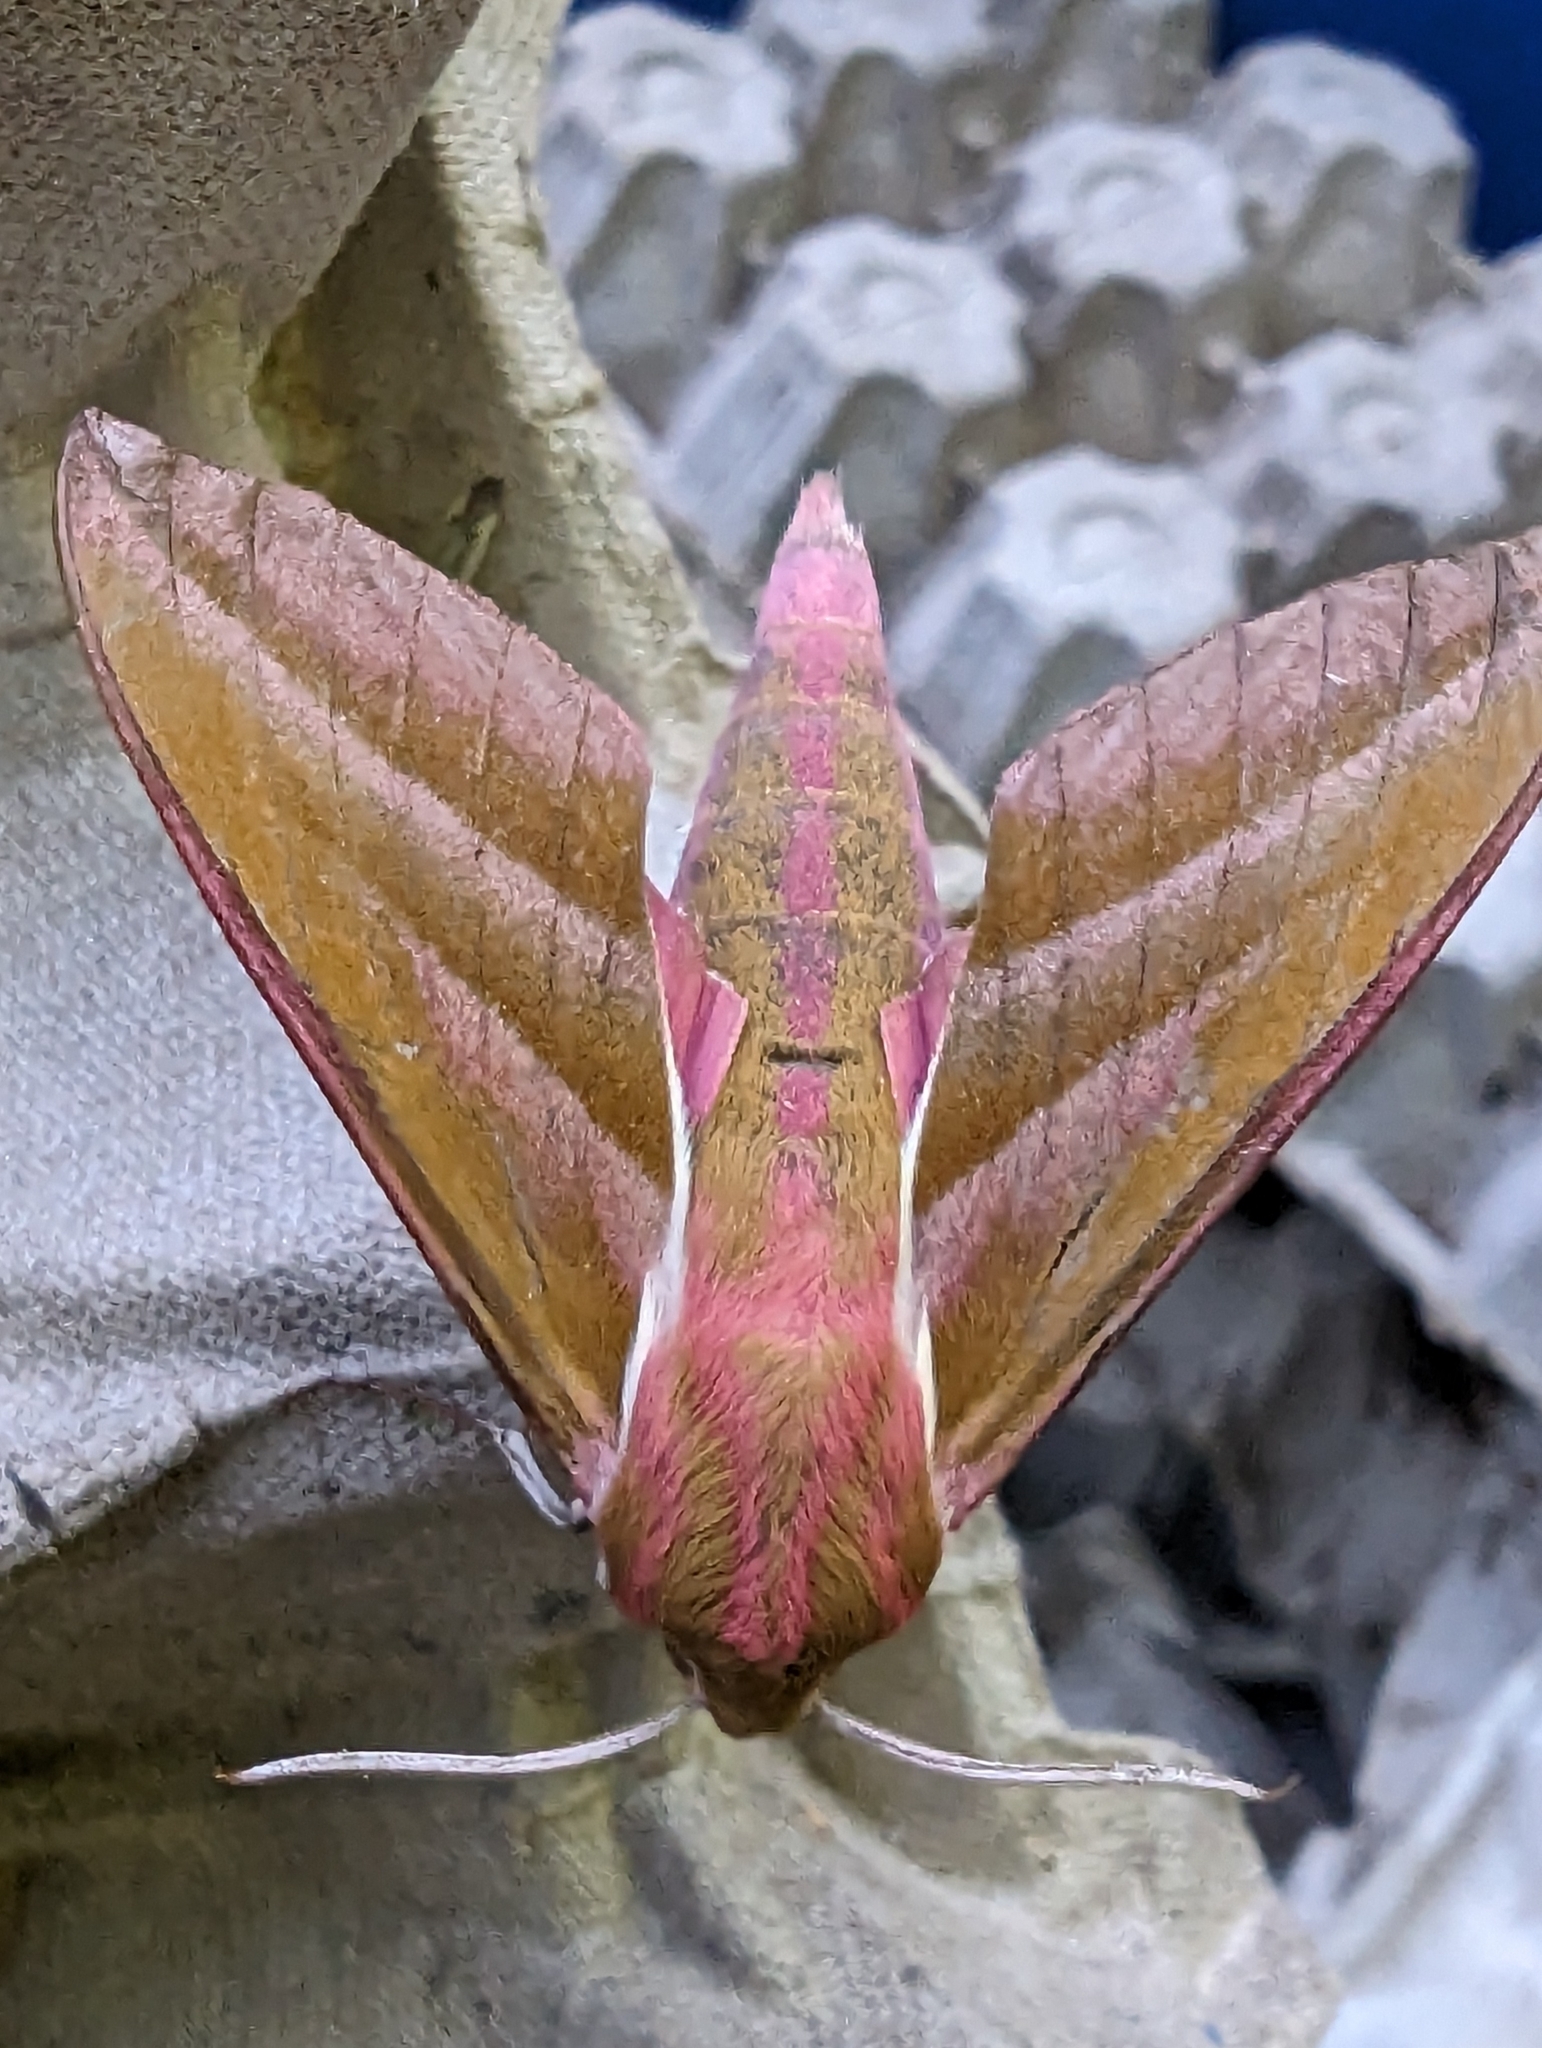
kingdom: Animalia
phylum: Arthropoda
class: Insecta
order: Lepidoptera
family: Sphingidae
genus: Deilephila
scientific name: Deilephila elpenor
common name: Elephant hawk-moth
